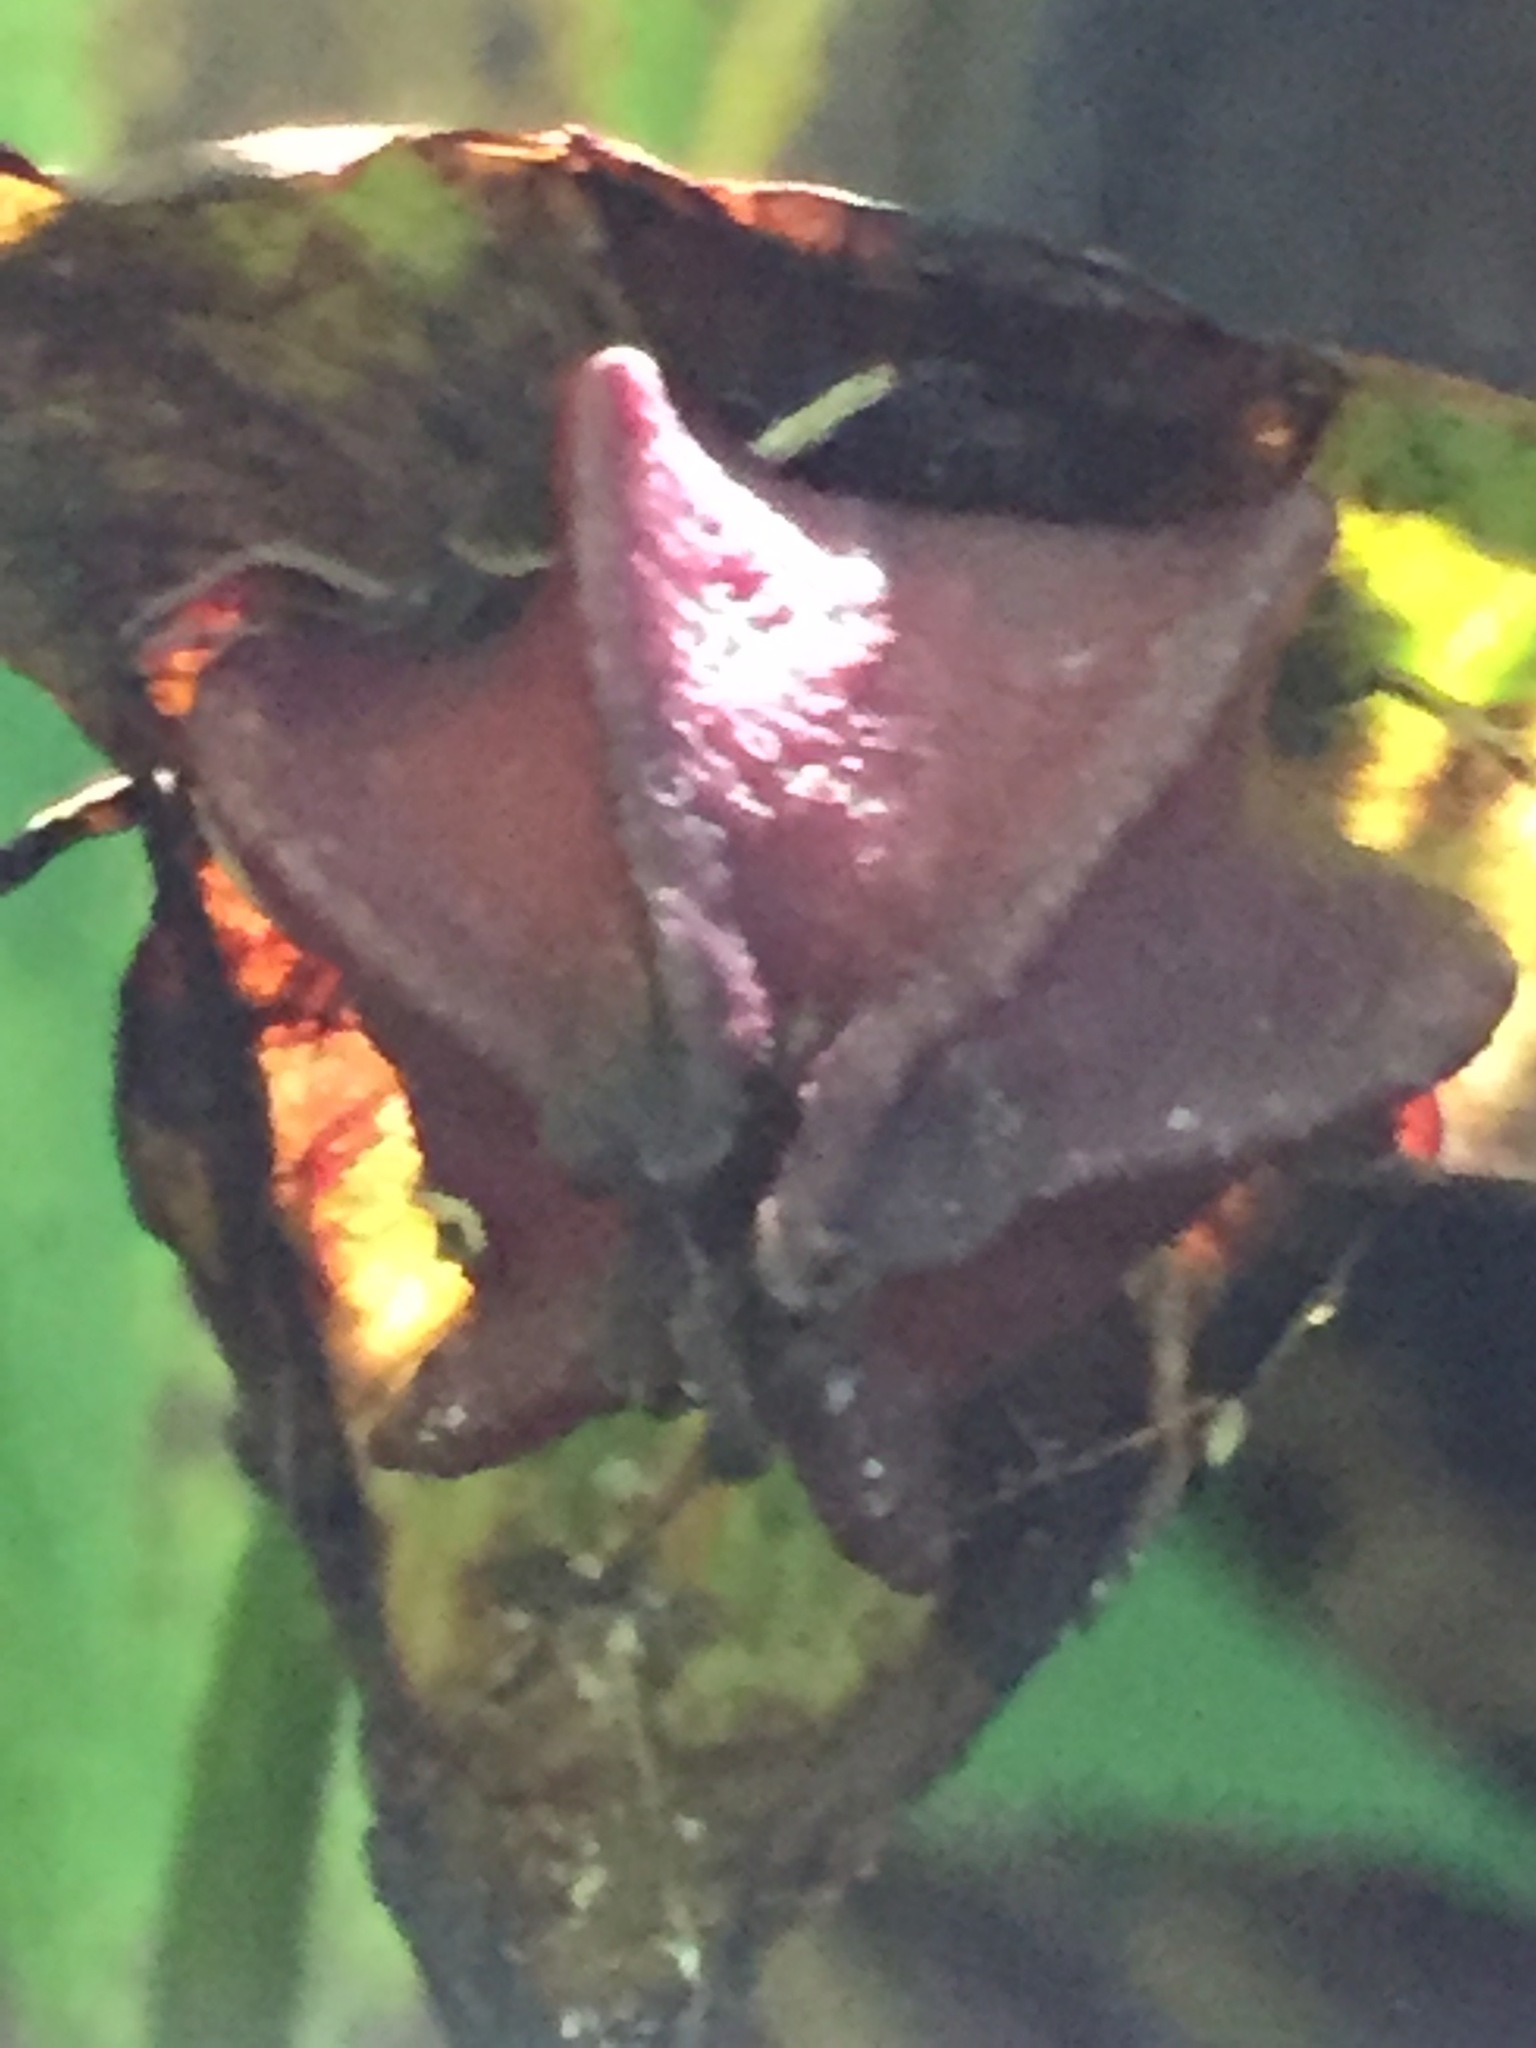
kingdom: Plantae
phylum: Tracheophyta
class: Liliopsida
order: Liliales
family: Melanthiaceae
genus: Trillium
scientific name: Trillium erectum
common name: Purple trillium
